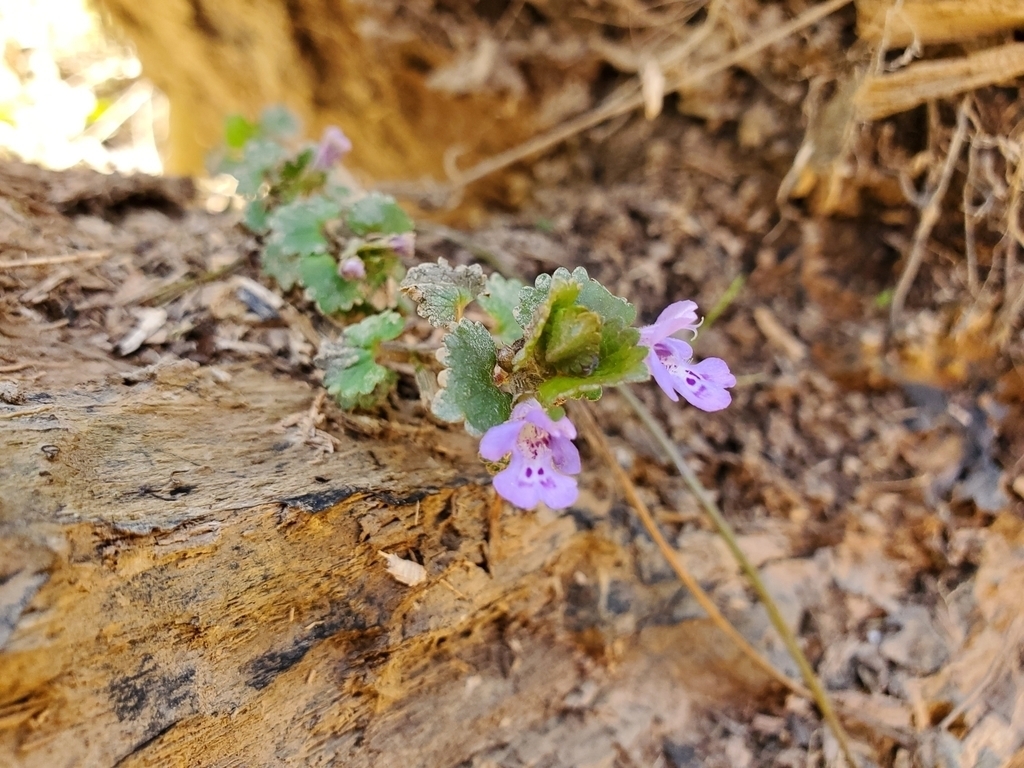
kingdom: Plantae
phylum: Tracheophyta
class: Magnoliopsida
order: Lamiales
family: Lamiaceae
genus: Glechoma
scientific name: Glechoma hederacea
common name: Ground ivy
